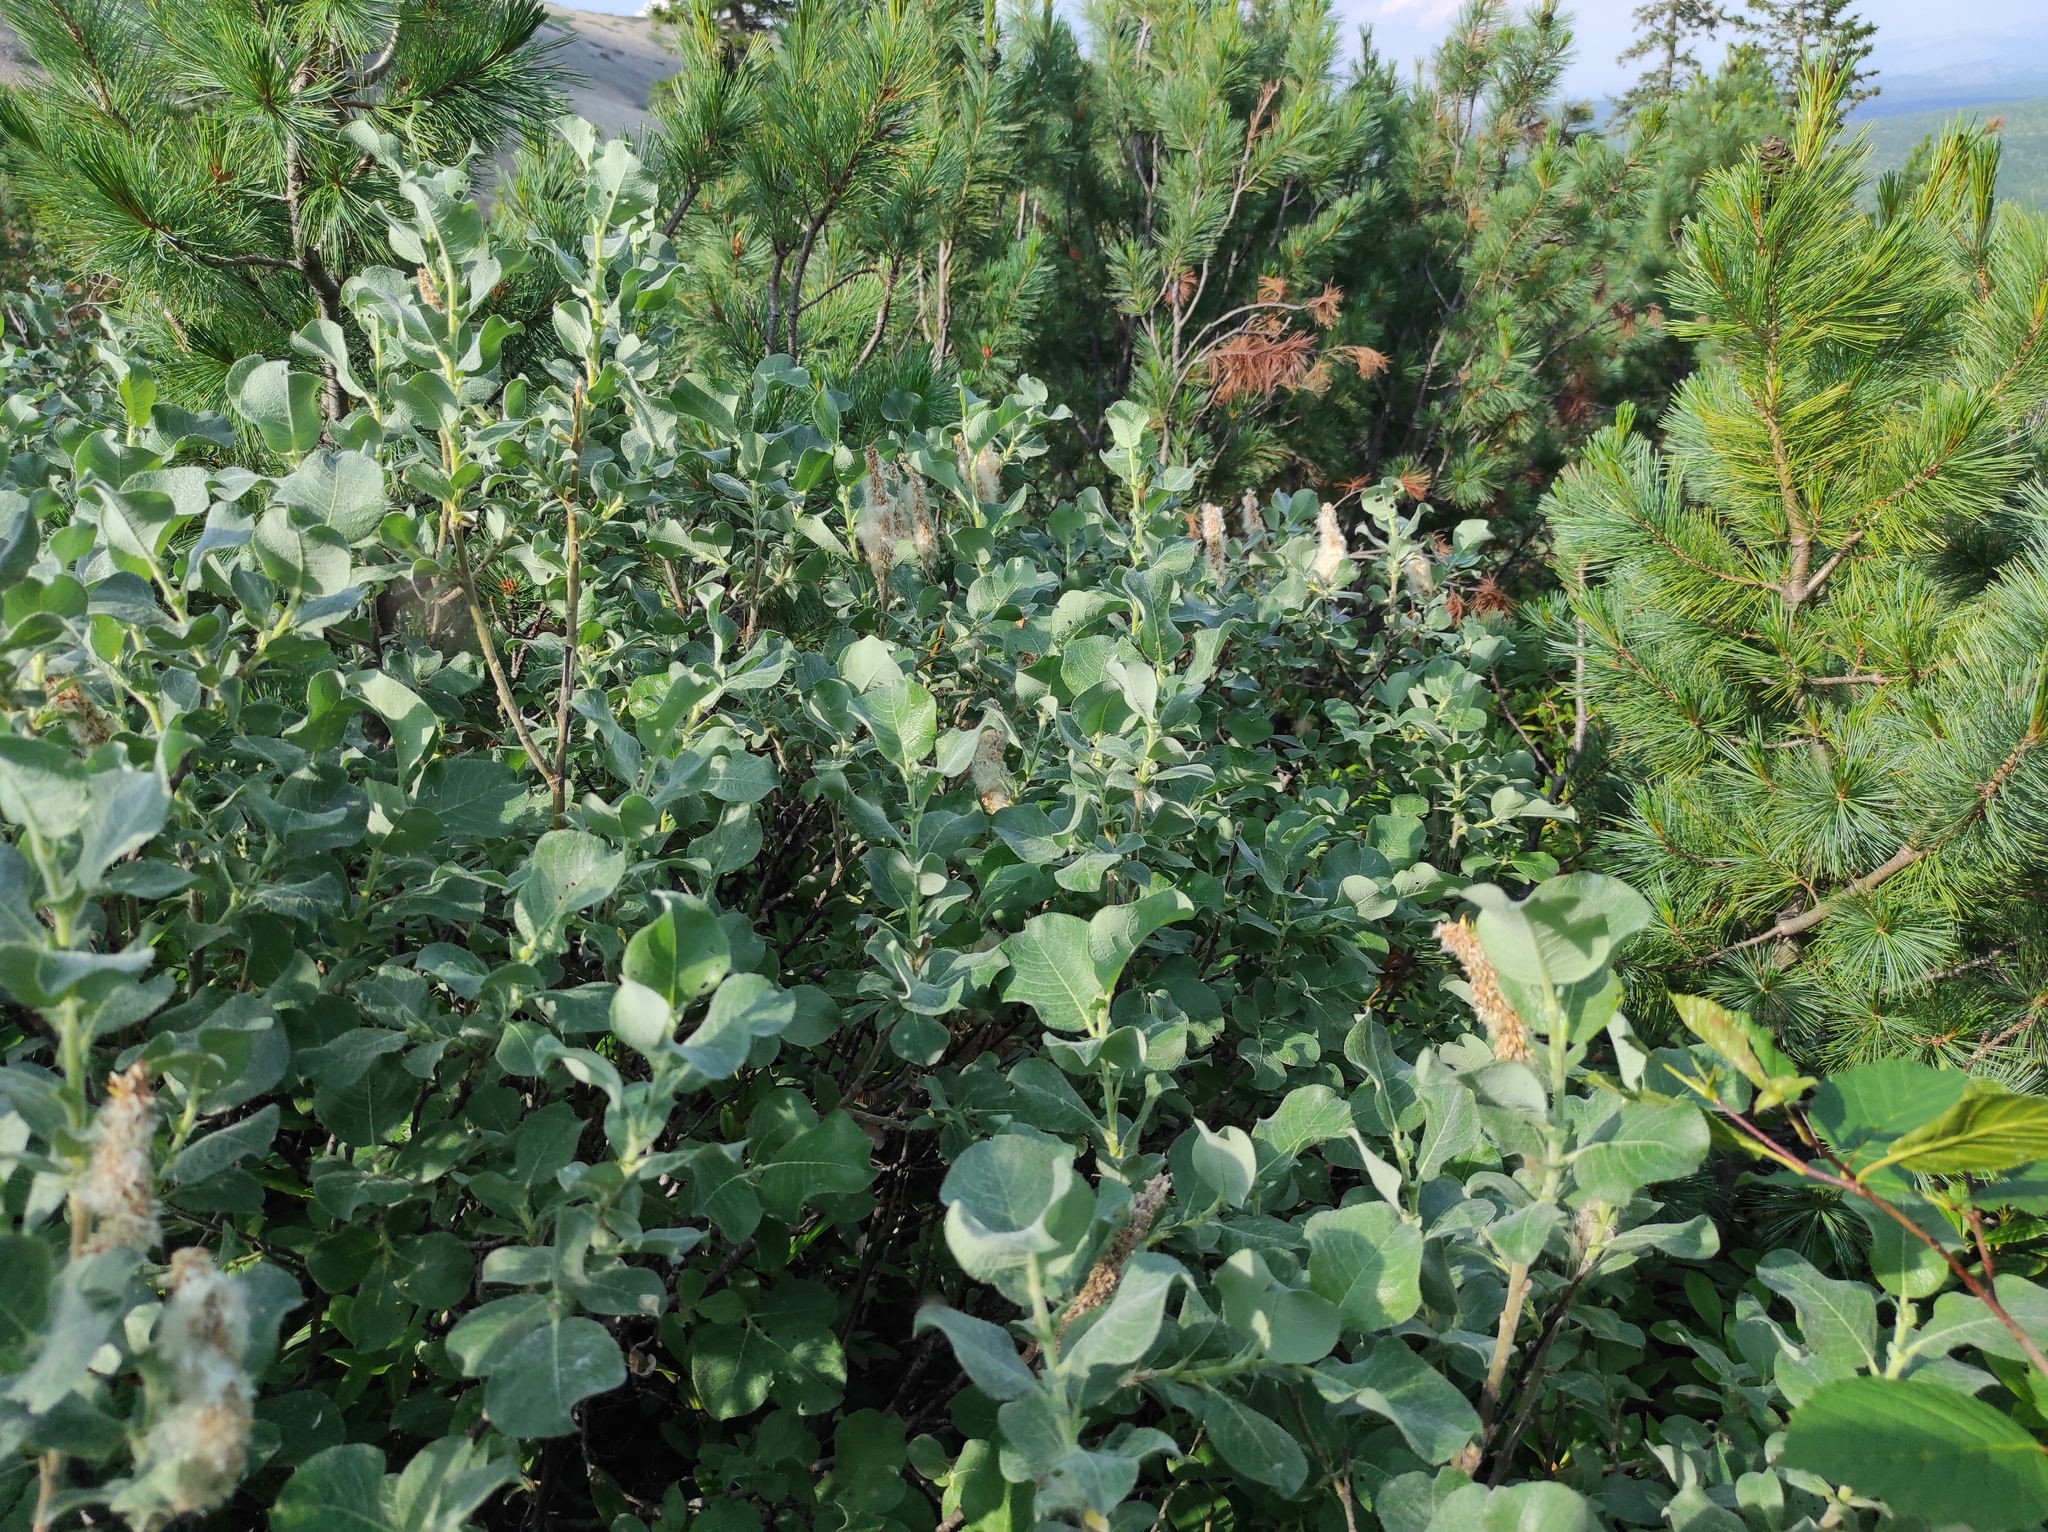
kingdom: Plantae
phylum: Tracheophyta
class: Pinopsida
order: Pinales
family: Pinaceae
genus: Pinus
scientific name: Pinus pumila
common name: Dwarf siberian pine
